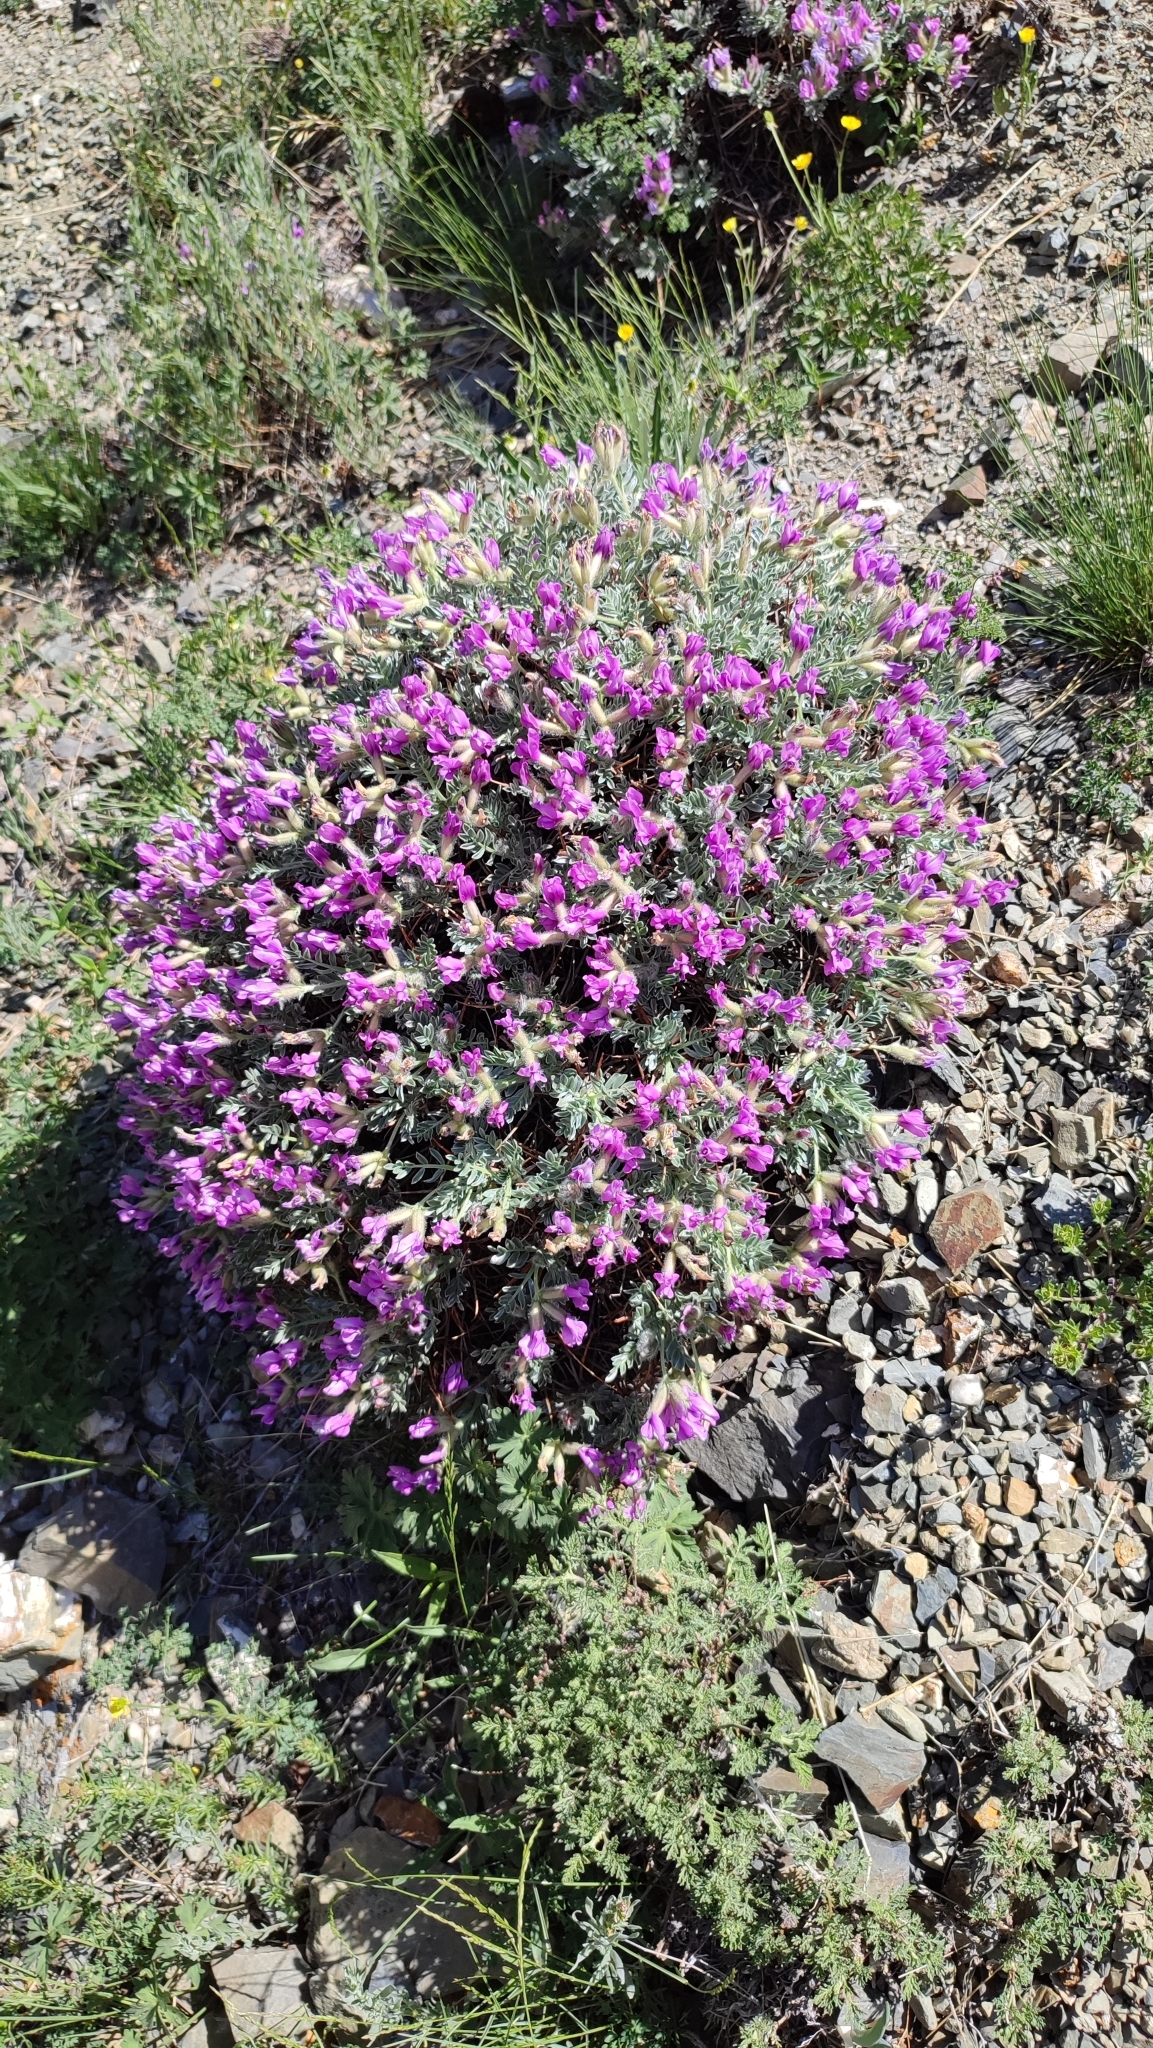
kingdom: Plantae
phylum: Tracheophyta
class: Magnoliopsida
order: Fabales
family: Fabaceae
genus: Oxytropis
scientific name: Oxytropis tragacanthoides
